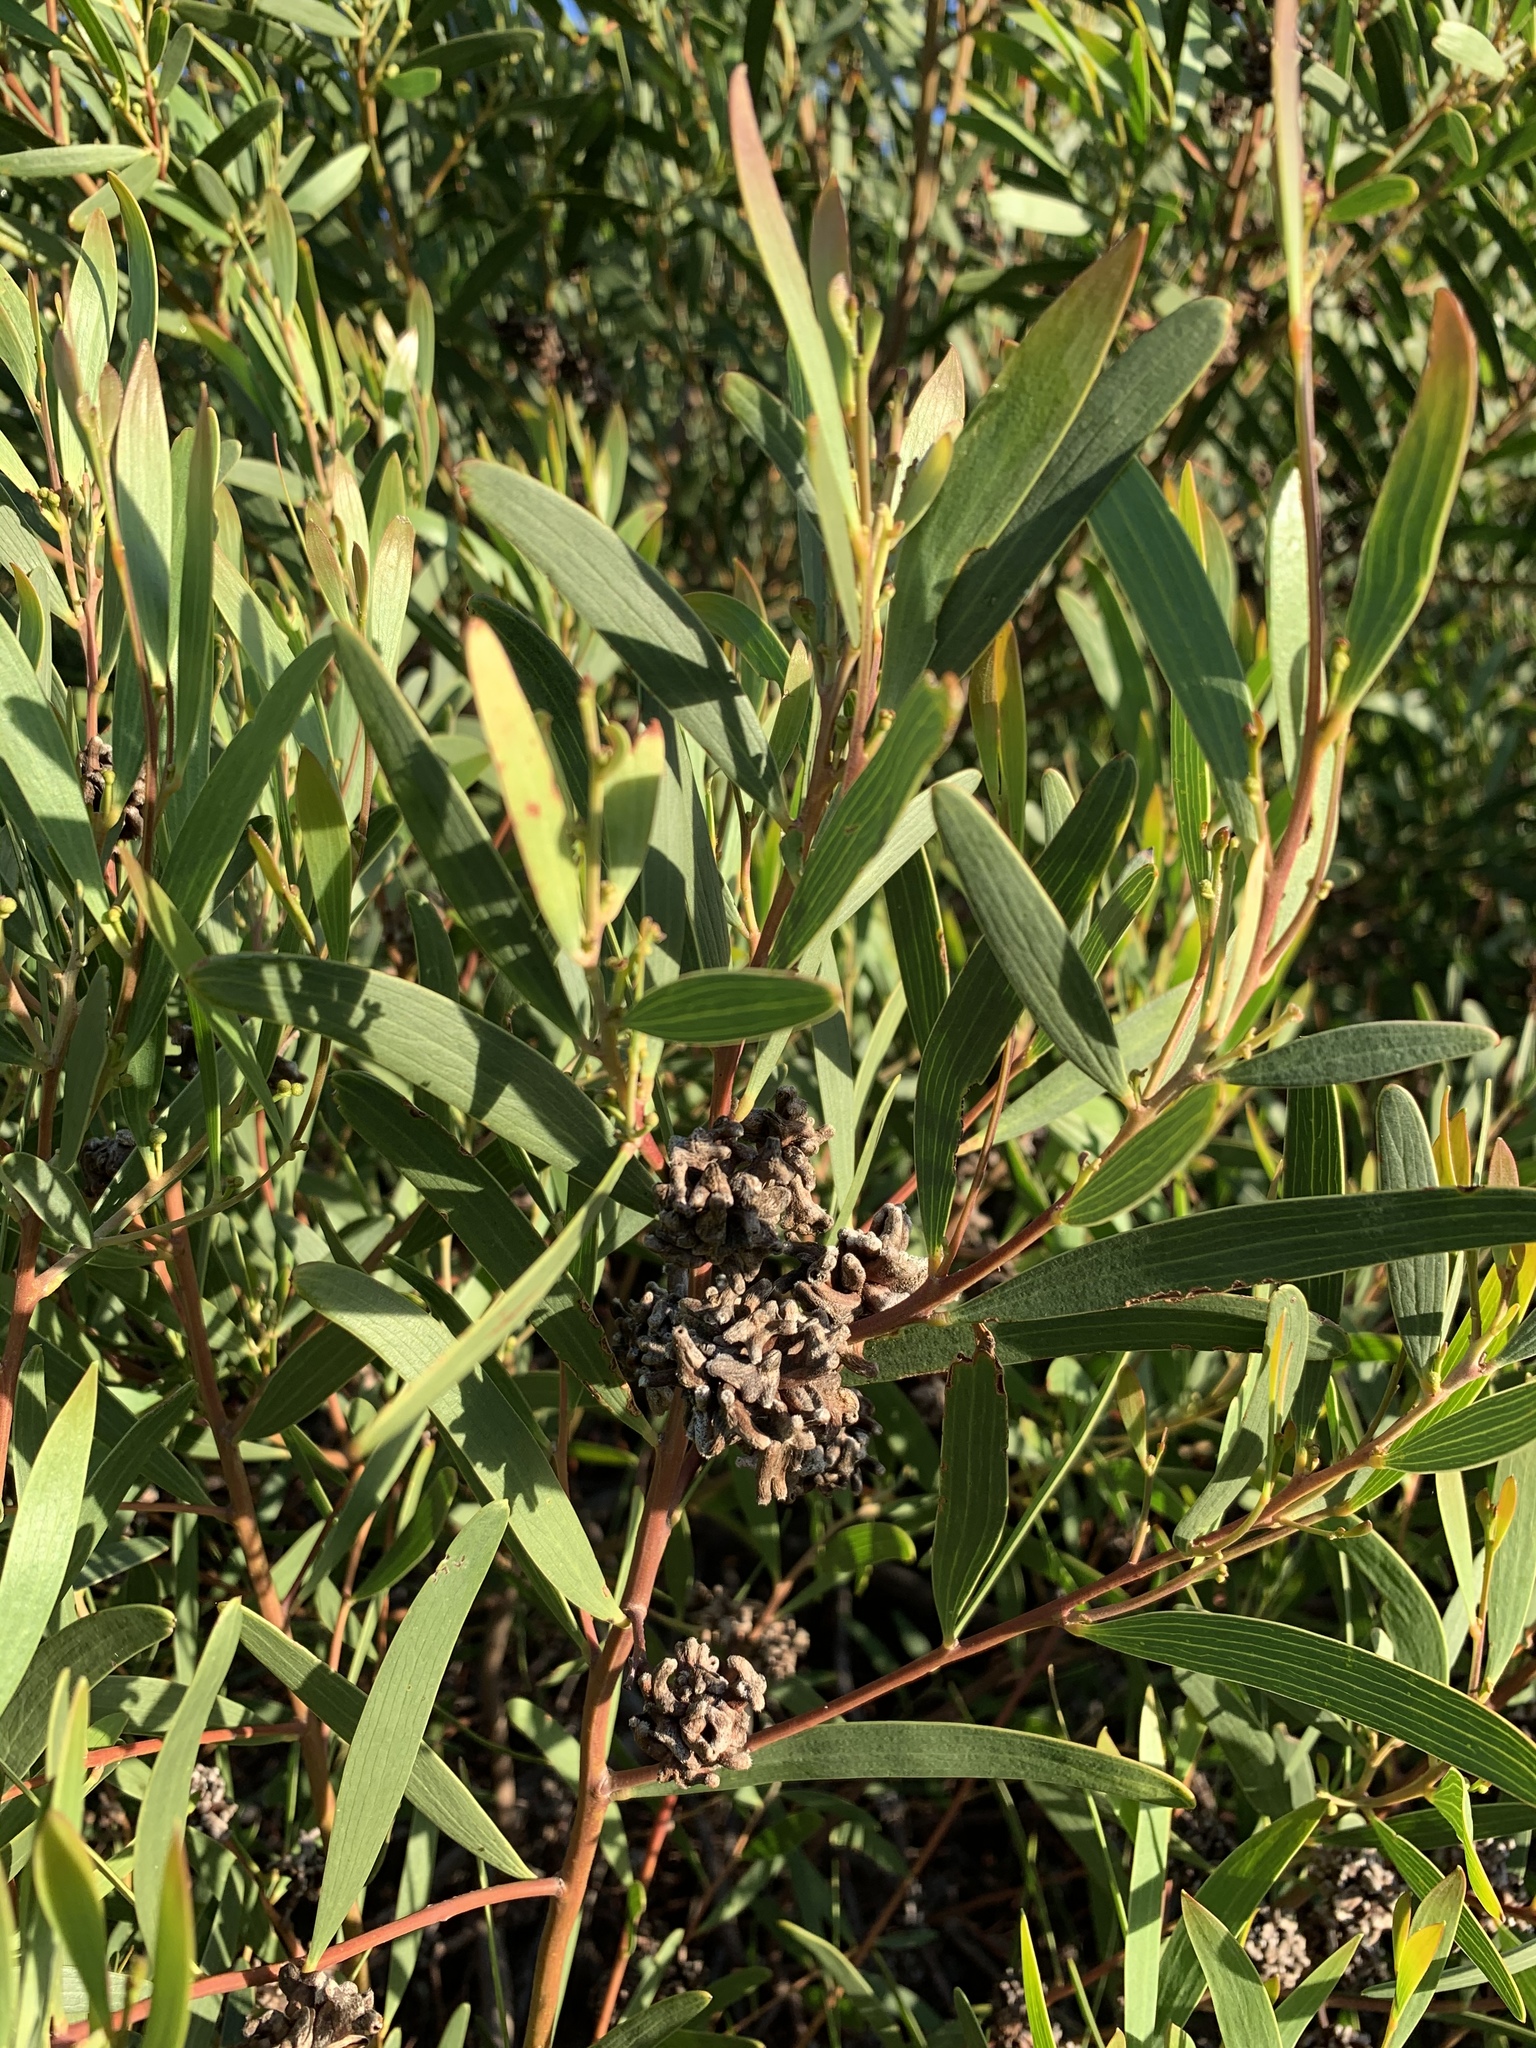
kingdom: Animalia
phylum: Arthropoda
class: Insecta
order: Diptera
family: Cecidomyiidae
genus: Dasineura
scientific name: Dasineura dielsi
